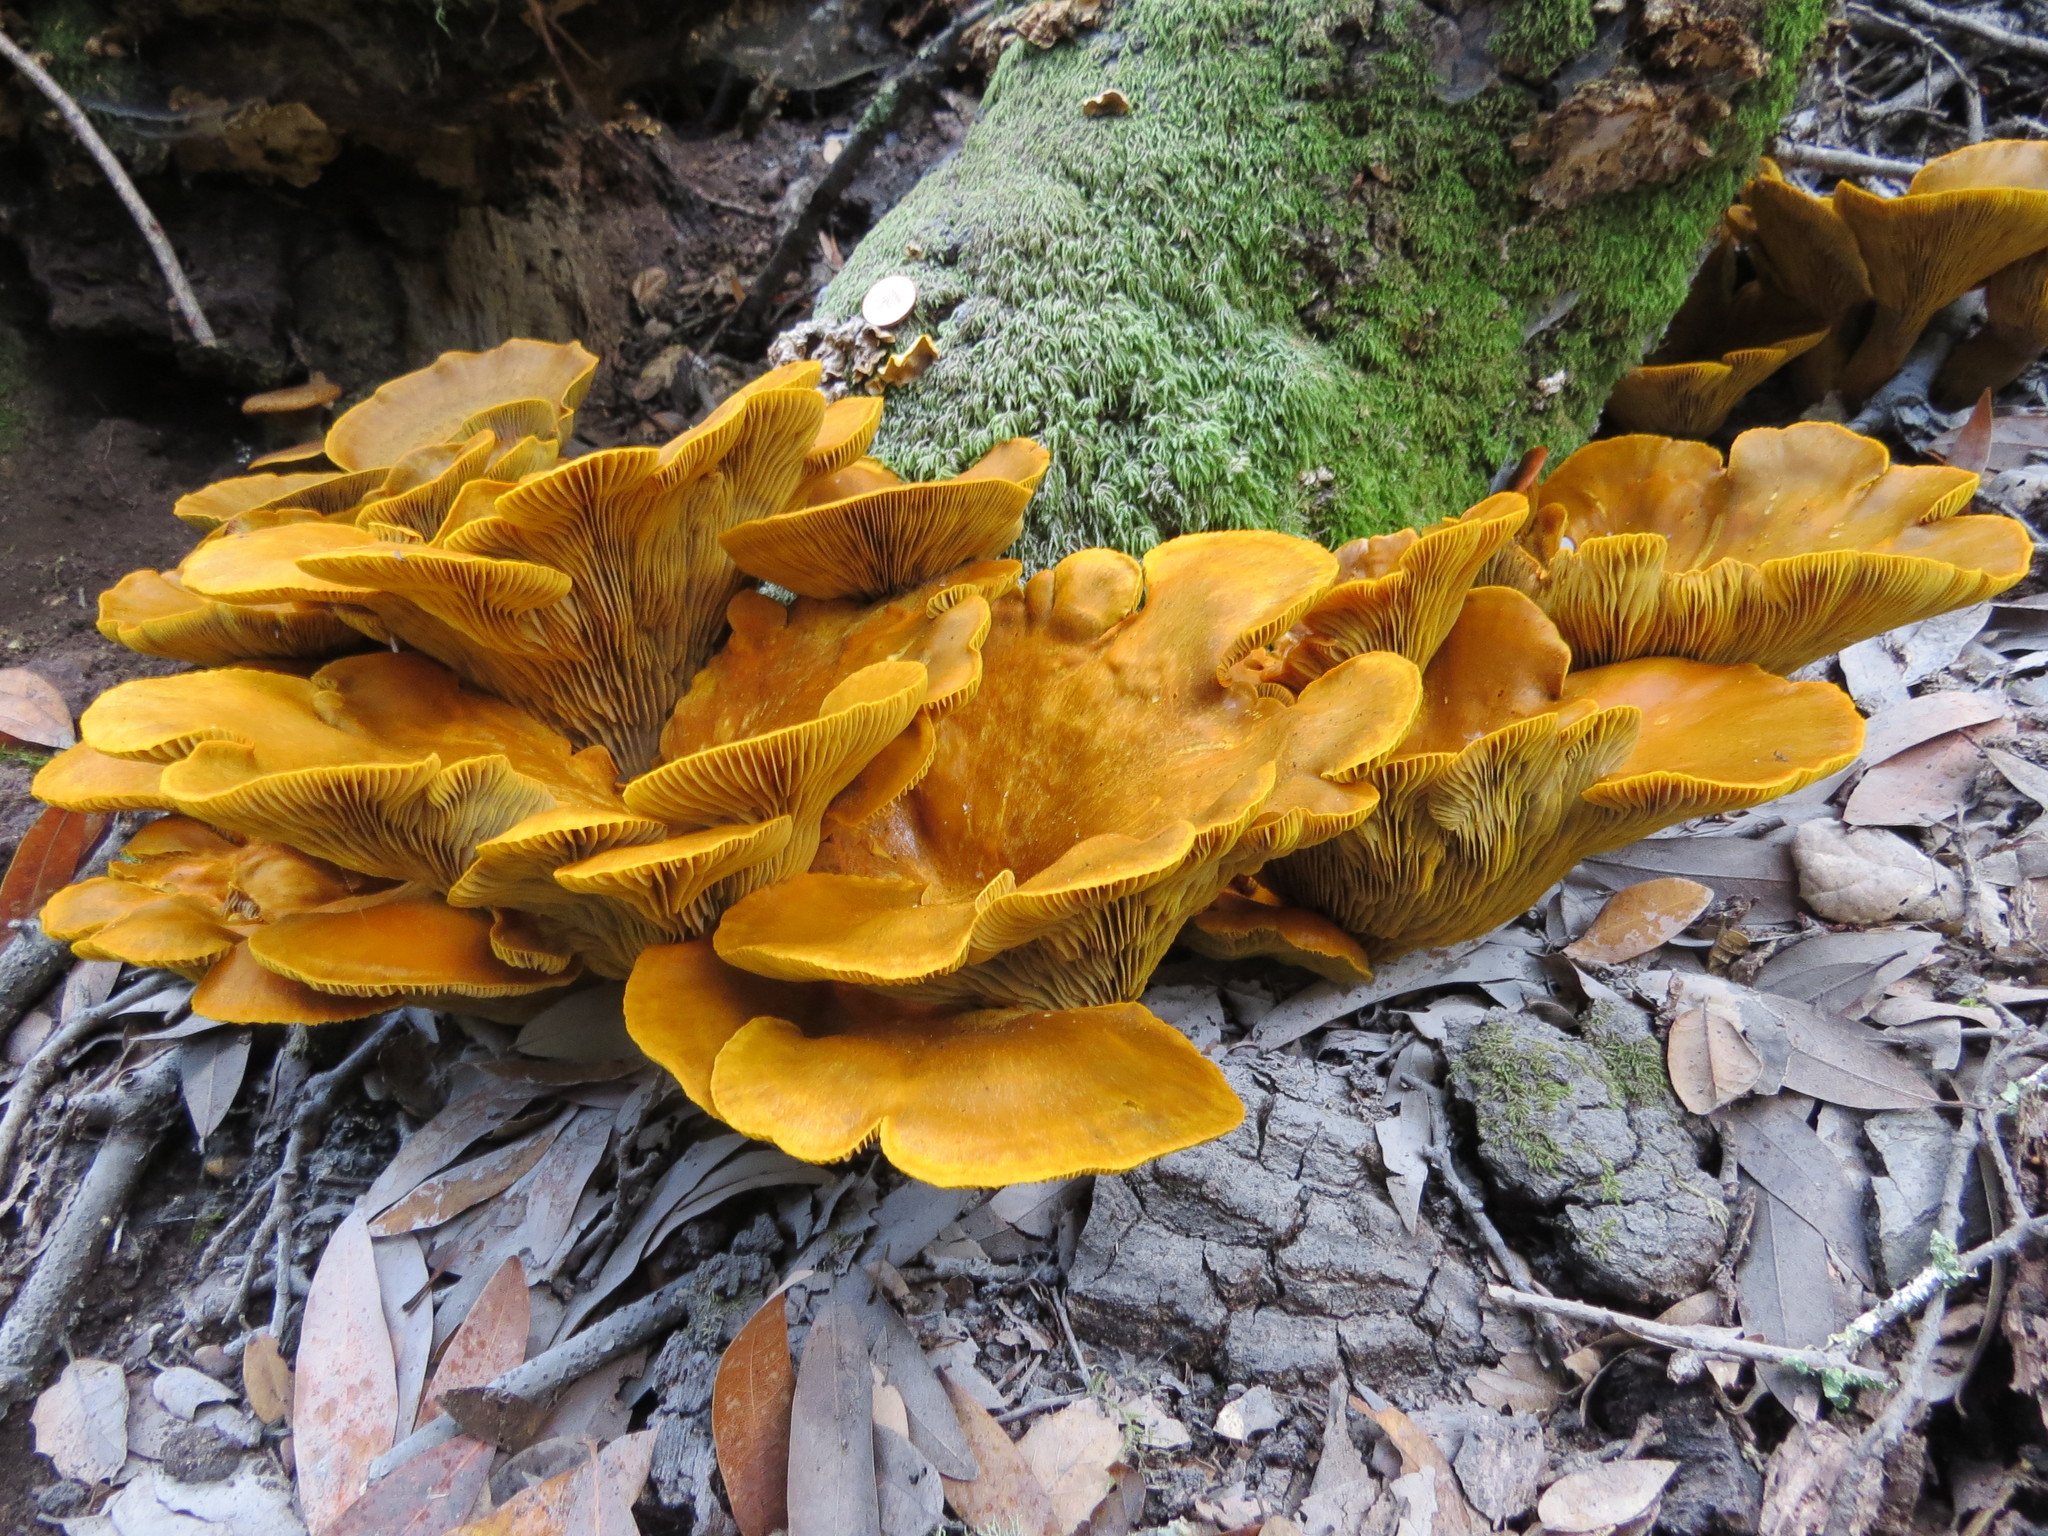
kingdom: Fungi
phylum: Basidiomycota
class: Agaricomycetes
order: Agaricales
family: Omphalotaceae
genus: Omphalotus
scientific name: Omphalotus olivascens
